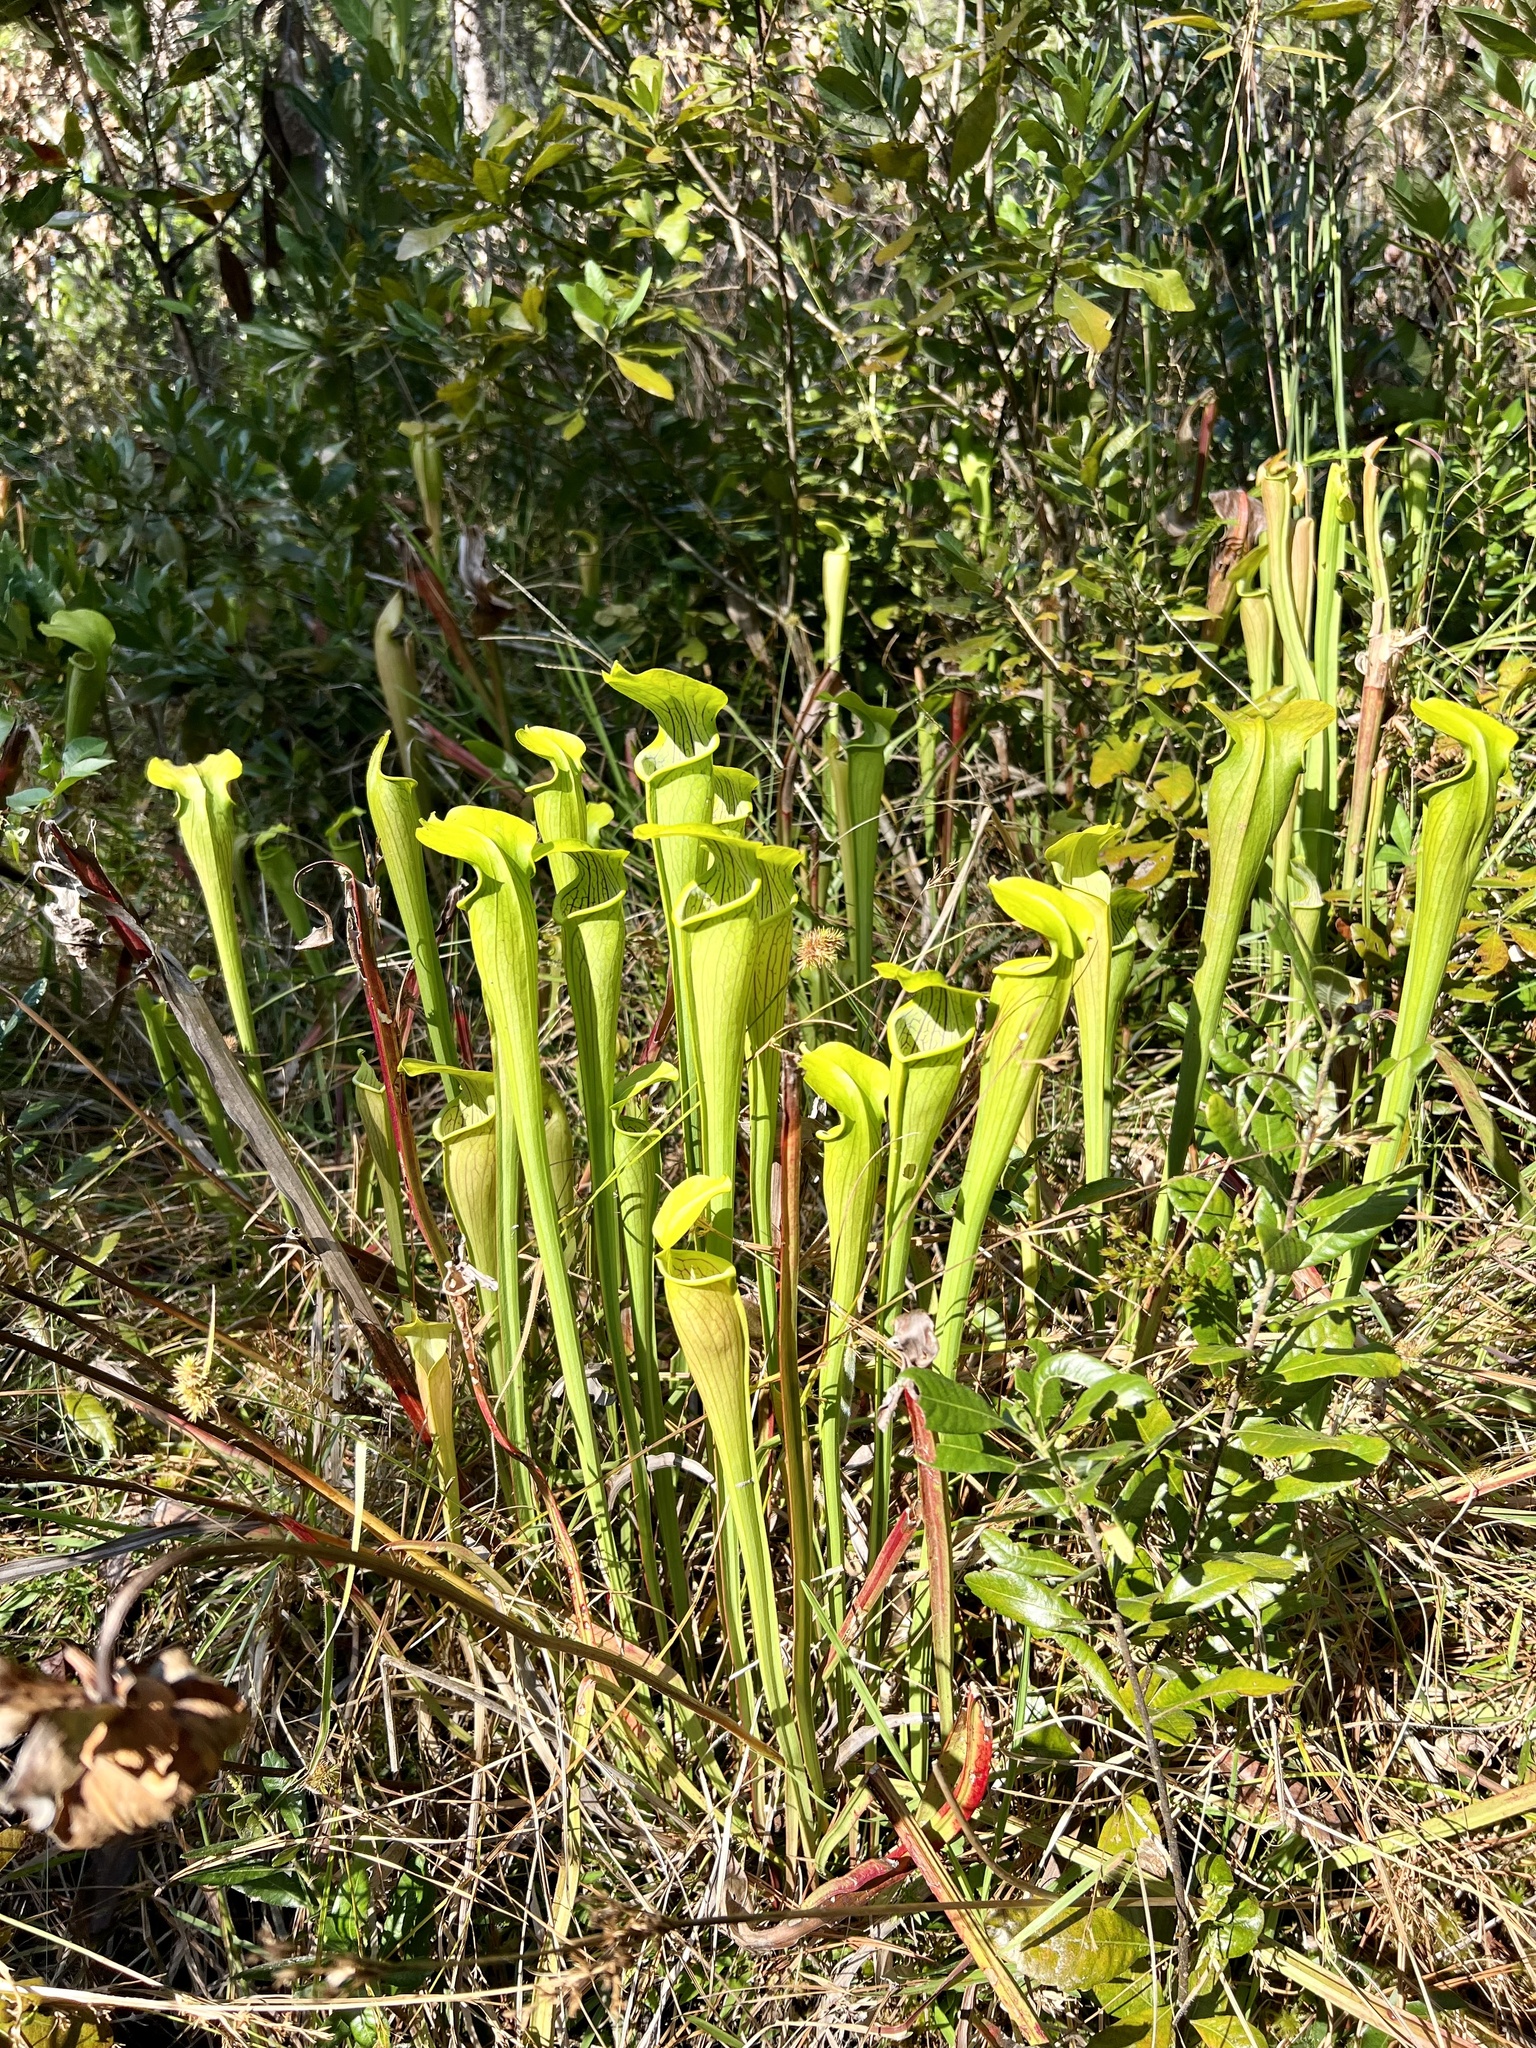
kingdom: Plantae
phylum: Tracheophyta
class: Magnoliopsida
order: Ericales
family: Sarraceniaceae
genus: Sarracenia
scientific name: Sarracenia alata
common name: Yellow trumpets
